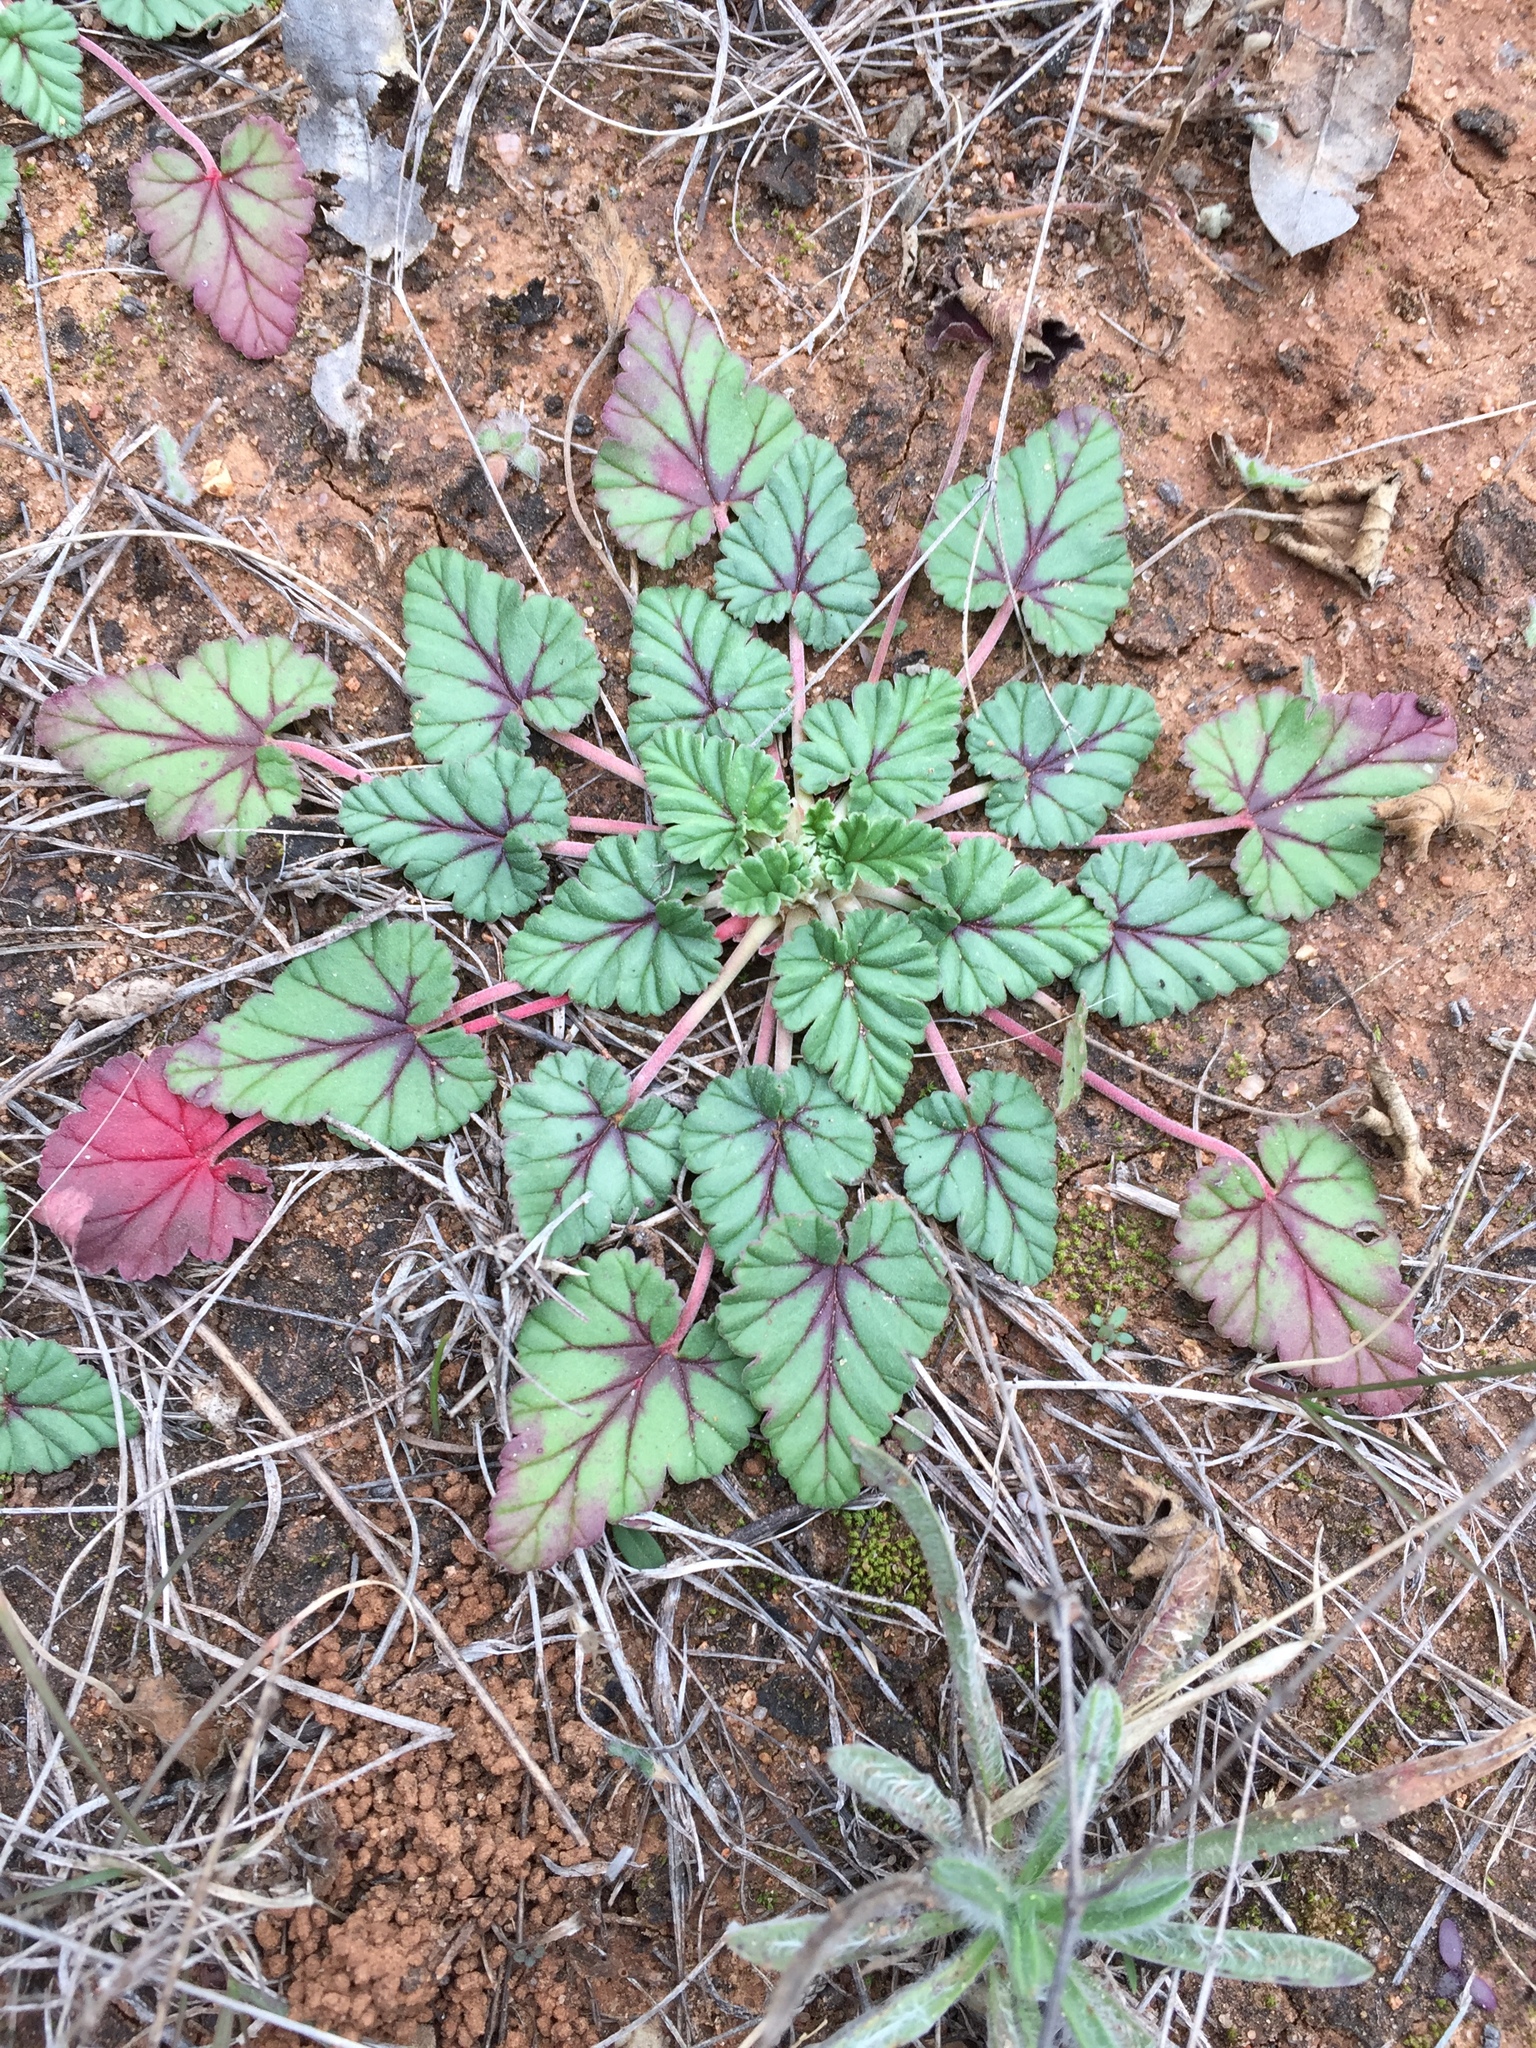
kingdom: Plantae
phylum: Tracheophyta
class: Magnoliopsida
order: Geraniales
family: Geraniaceae
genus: Erodium
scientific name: Erodium texanum
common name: Texas stork's-bill
